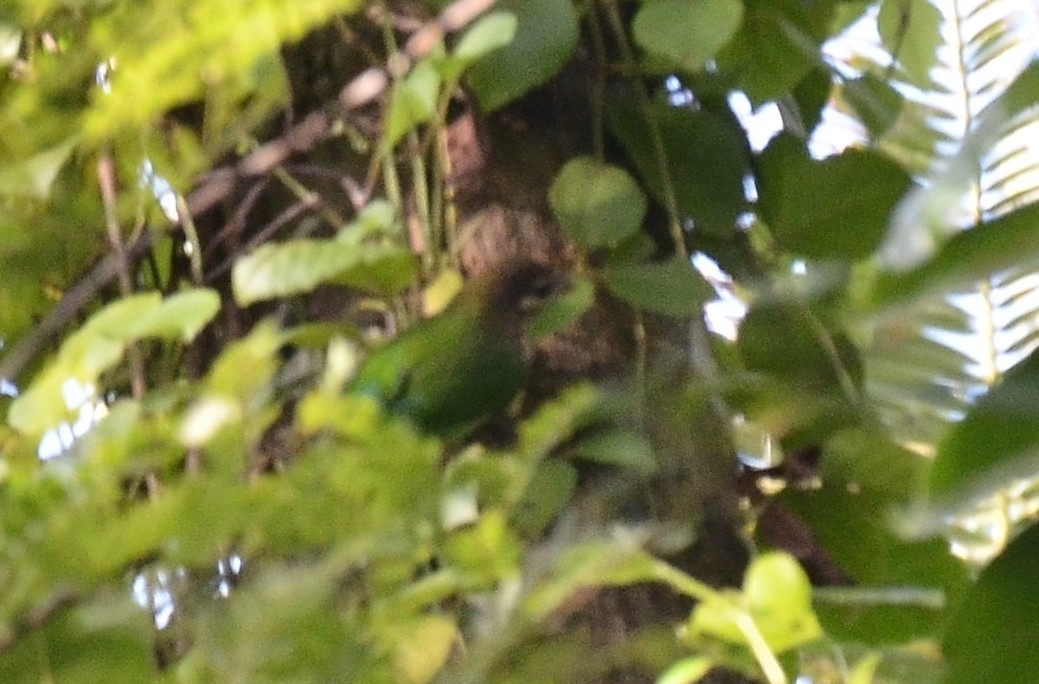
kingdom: Animalia
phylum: Chordata
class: Aves
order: Piciformes
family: Megalaimidae
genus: Psilopogon
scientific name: Psilopogon viridis
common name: White-cheeked barbet
